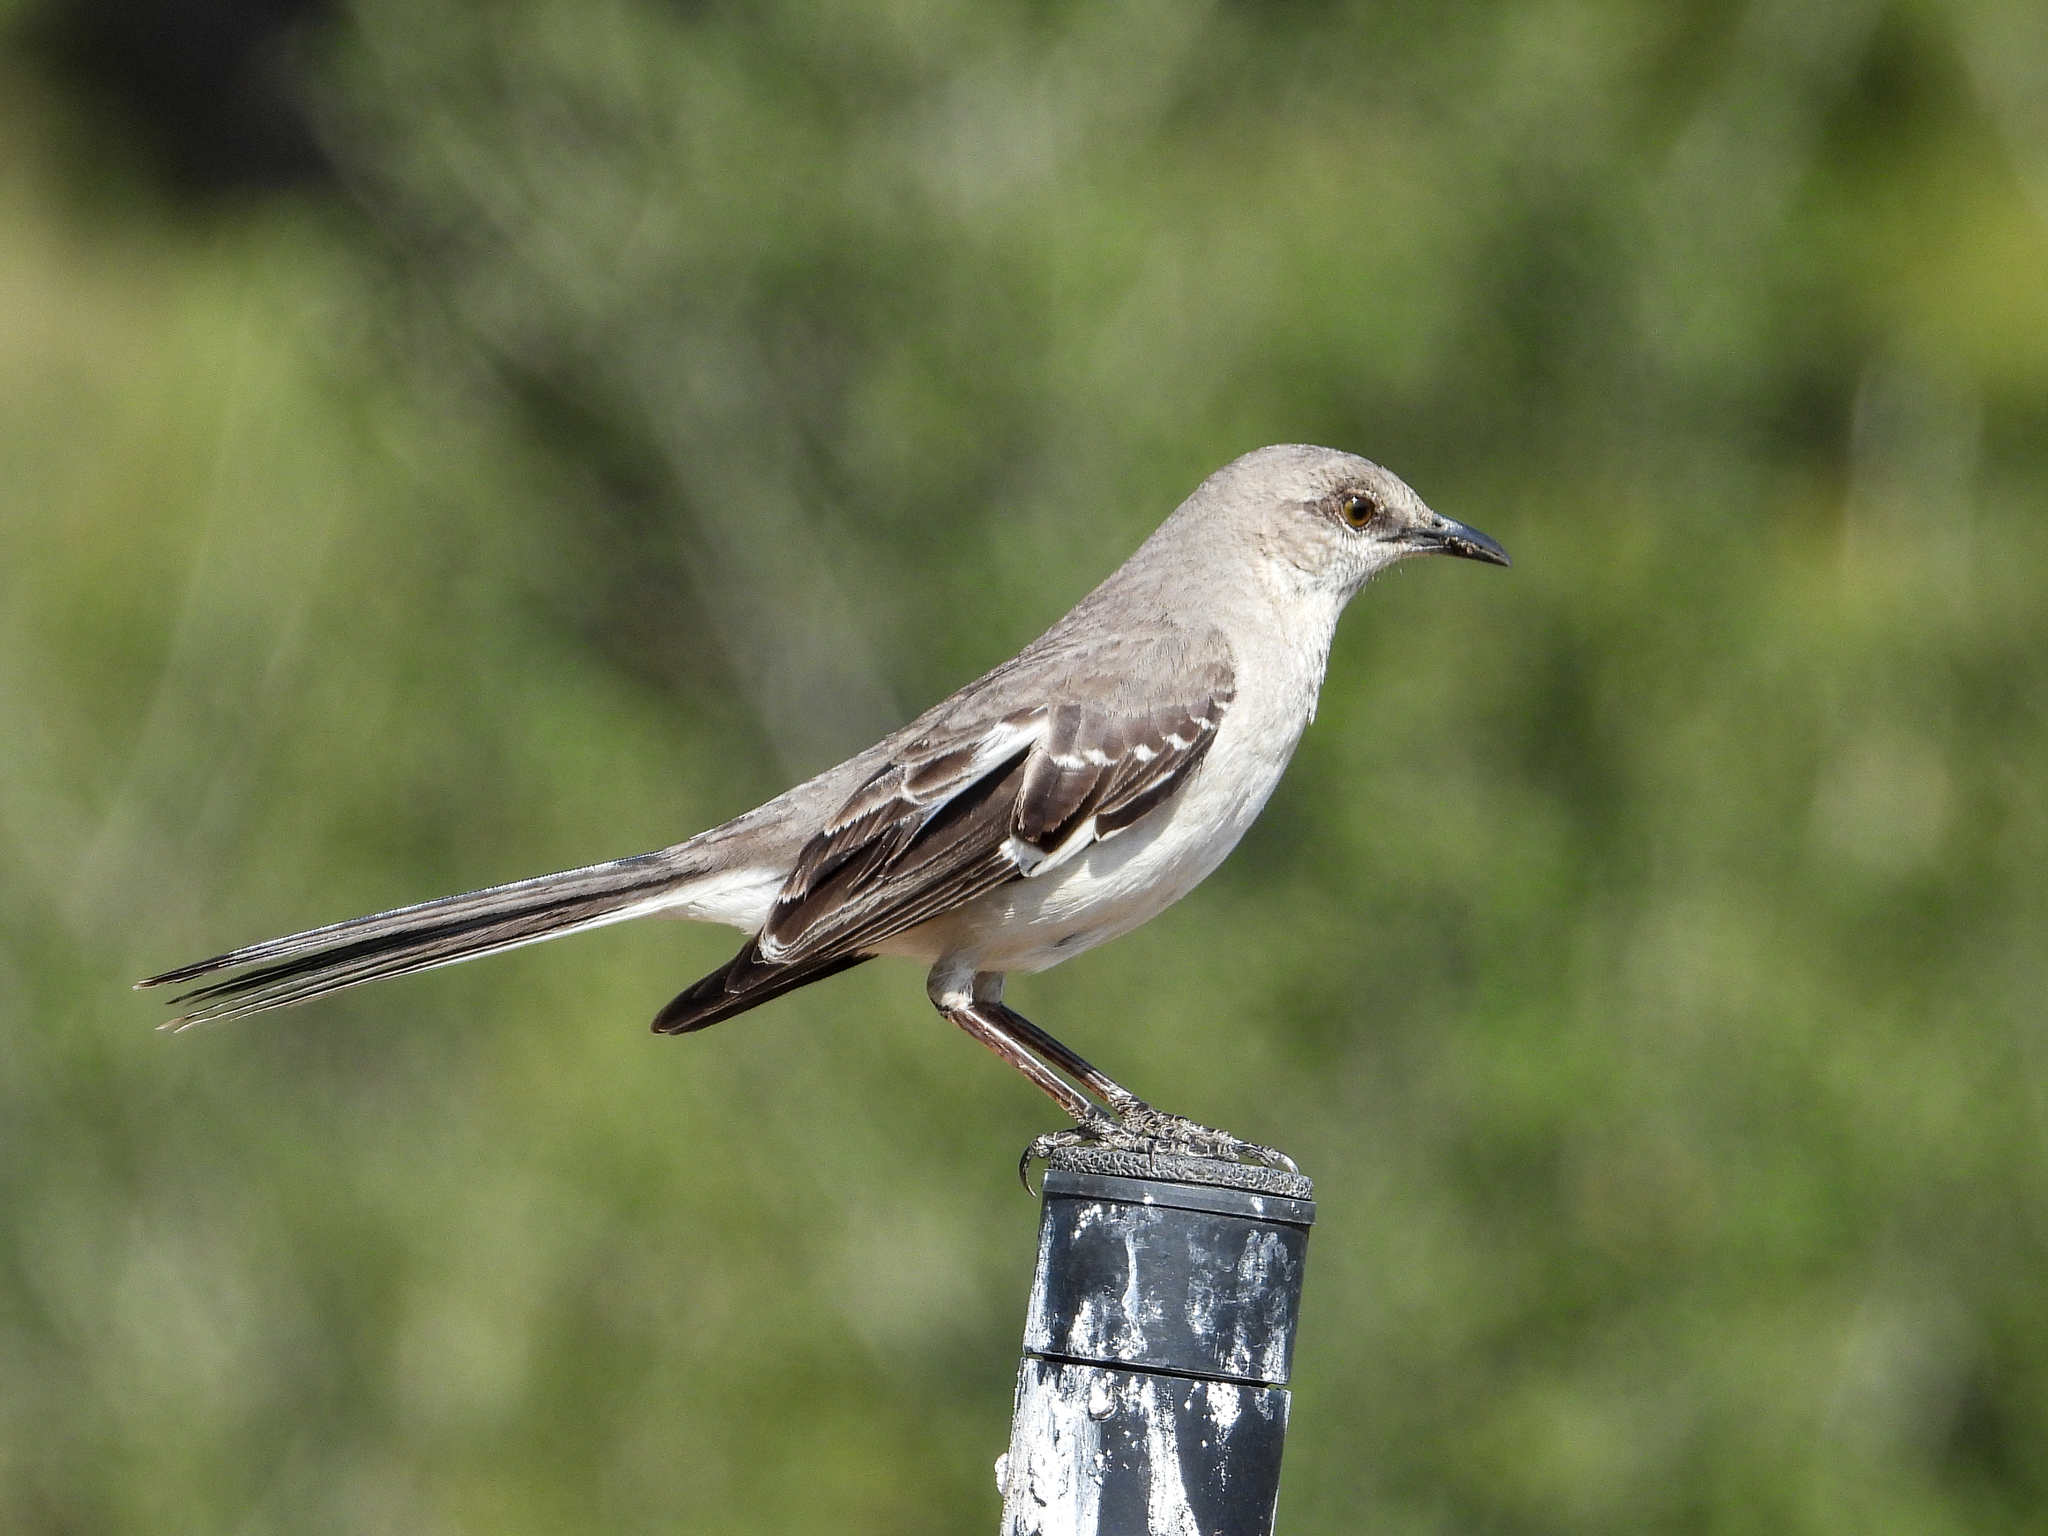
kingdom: Animalia
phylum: Chordata
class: Aves
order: Passeriformes
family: Mimidae
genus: Mimus
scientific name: Mimus polyglottos
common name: Northern mockingbird
